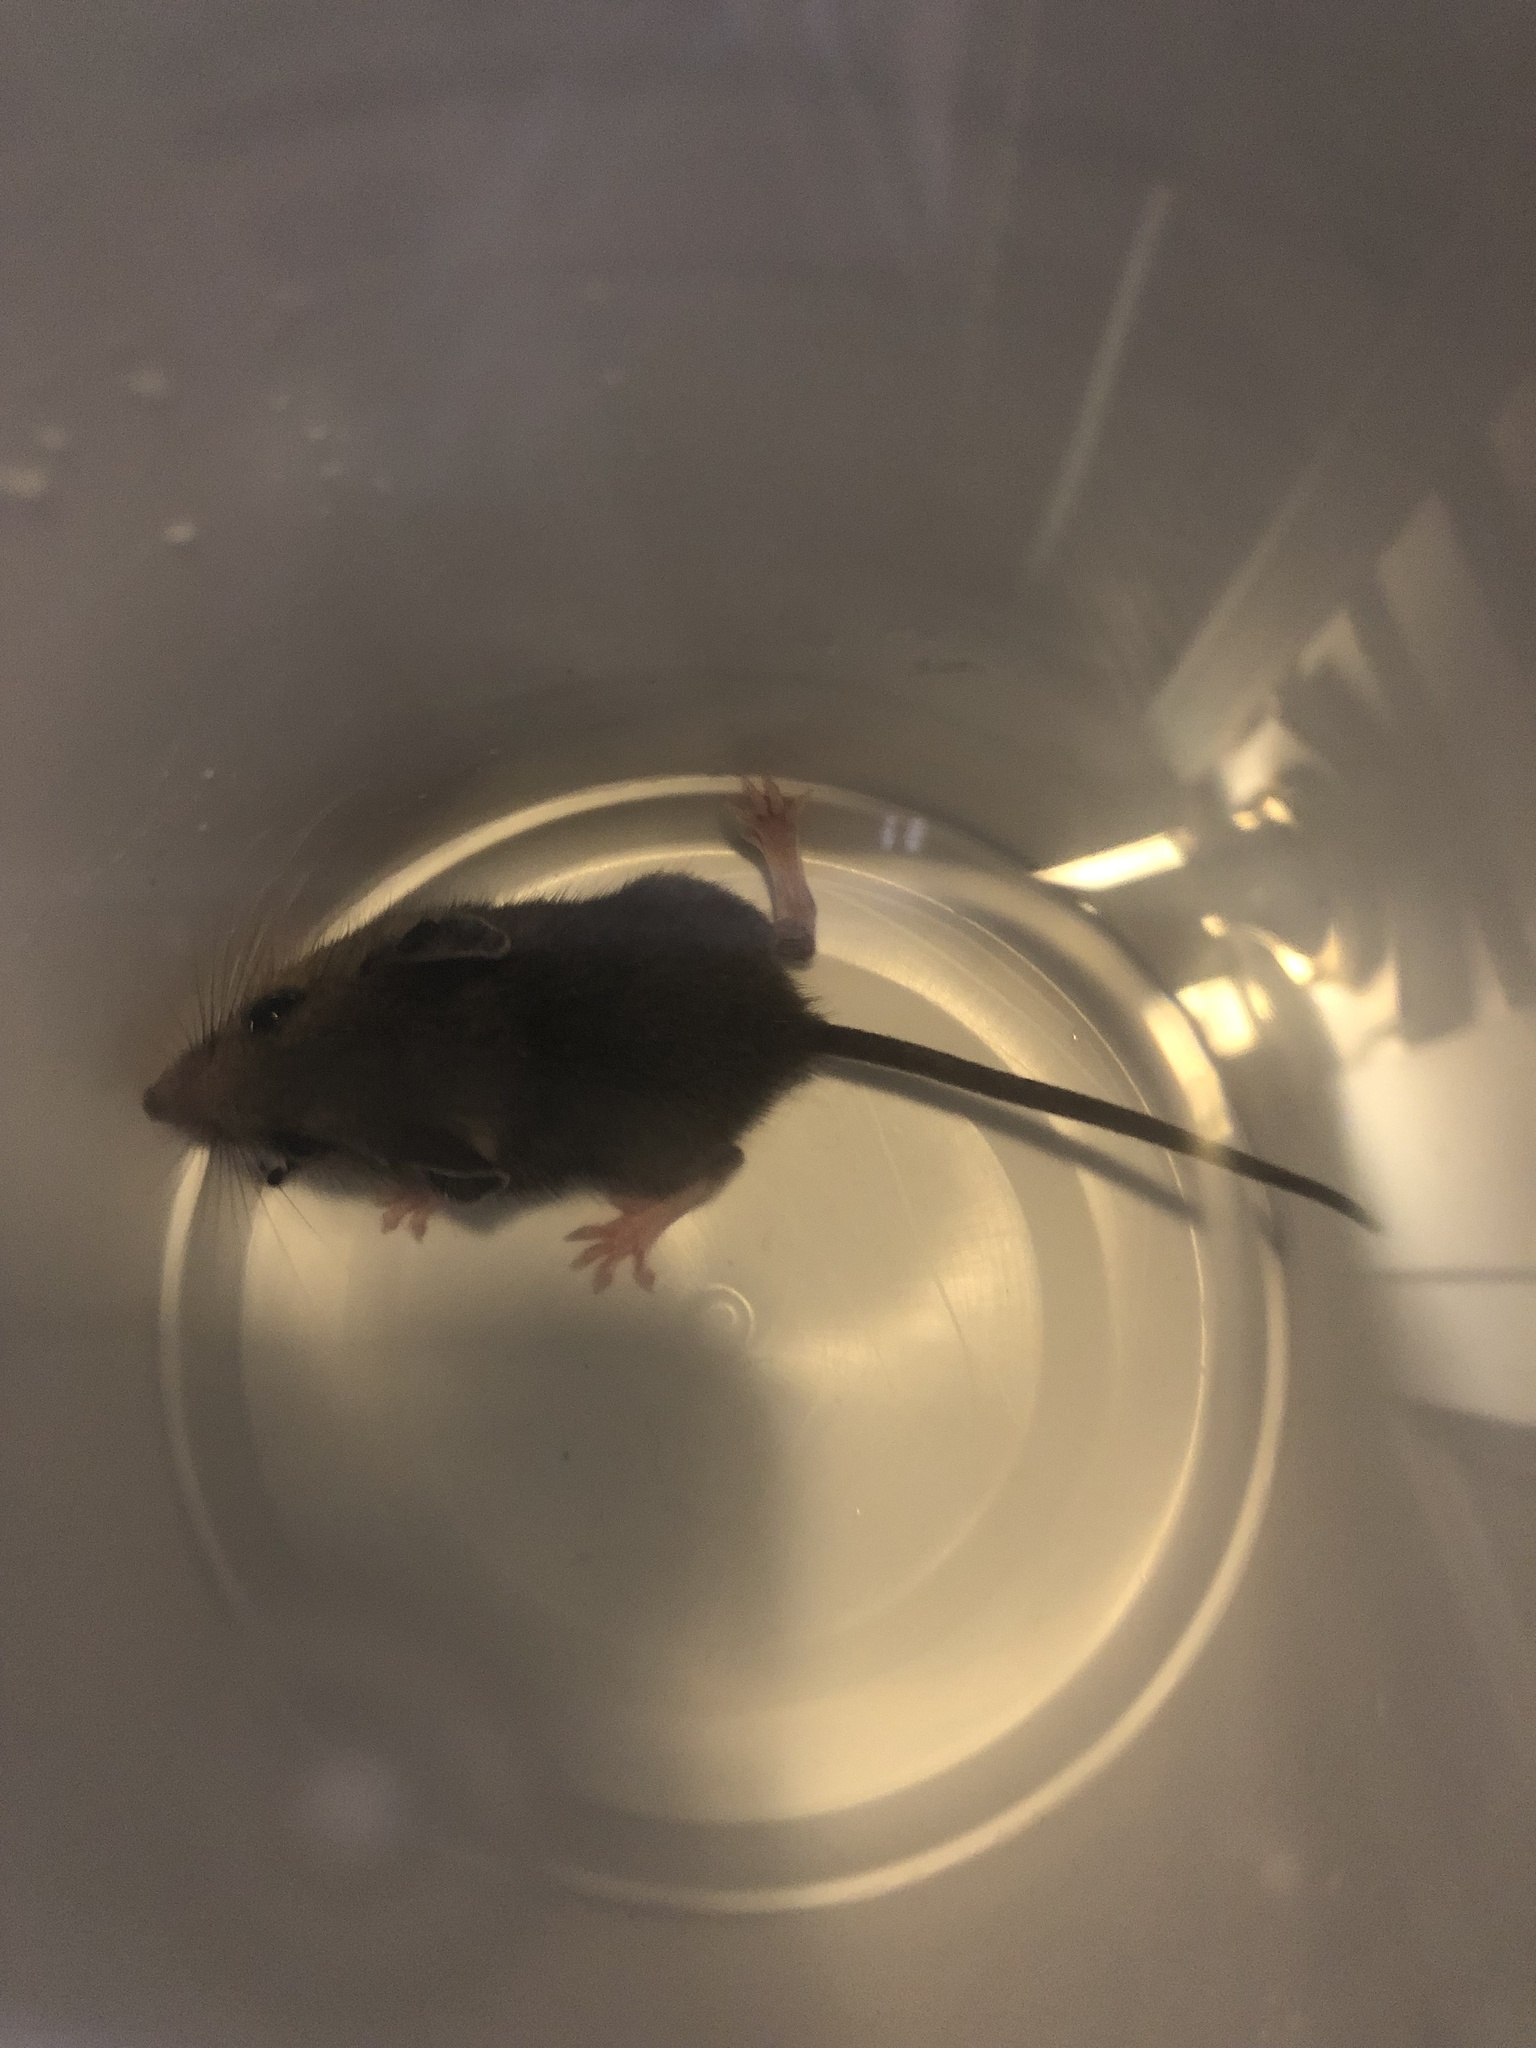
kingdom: Animalia
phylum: Chordata
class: Mammalia
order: Rodentia
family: Cricetidae
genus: Peromyscus
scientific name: Peromyscus
